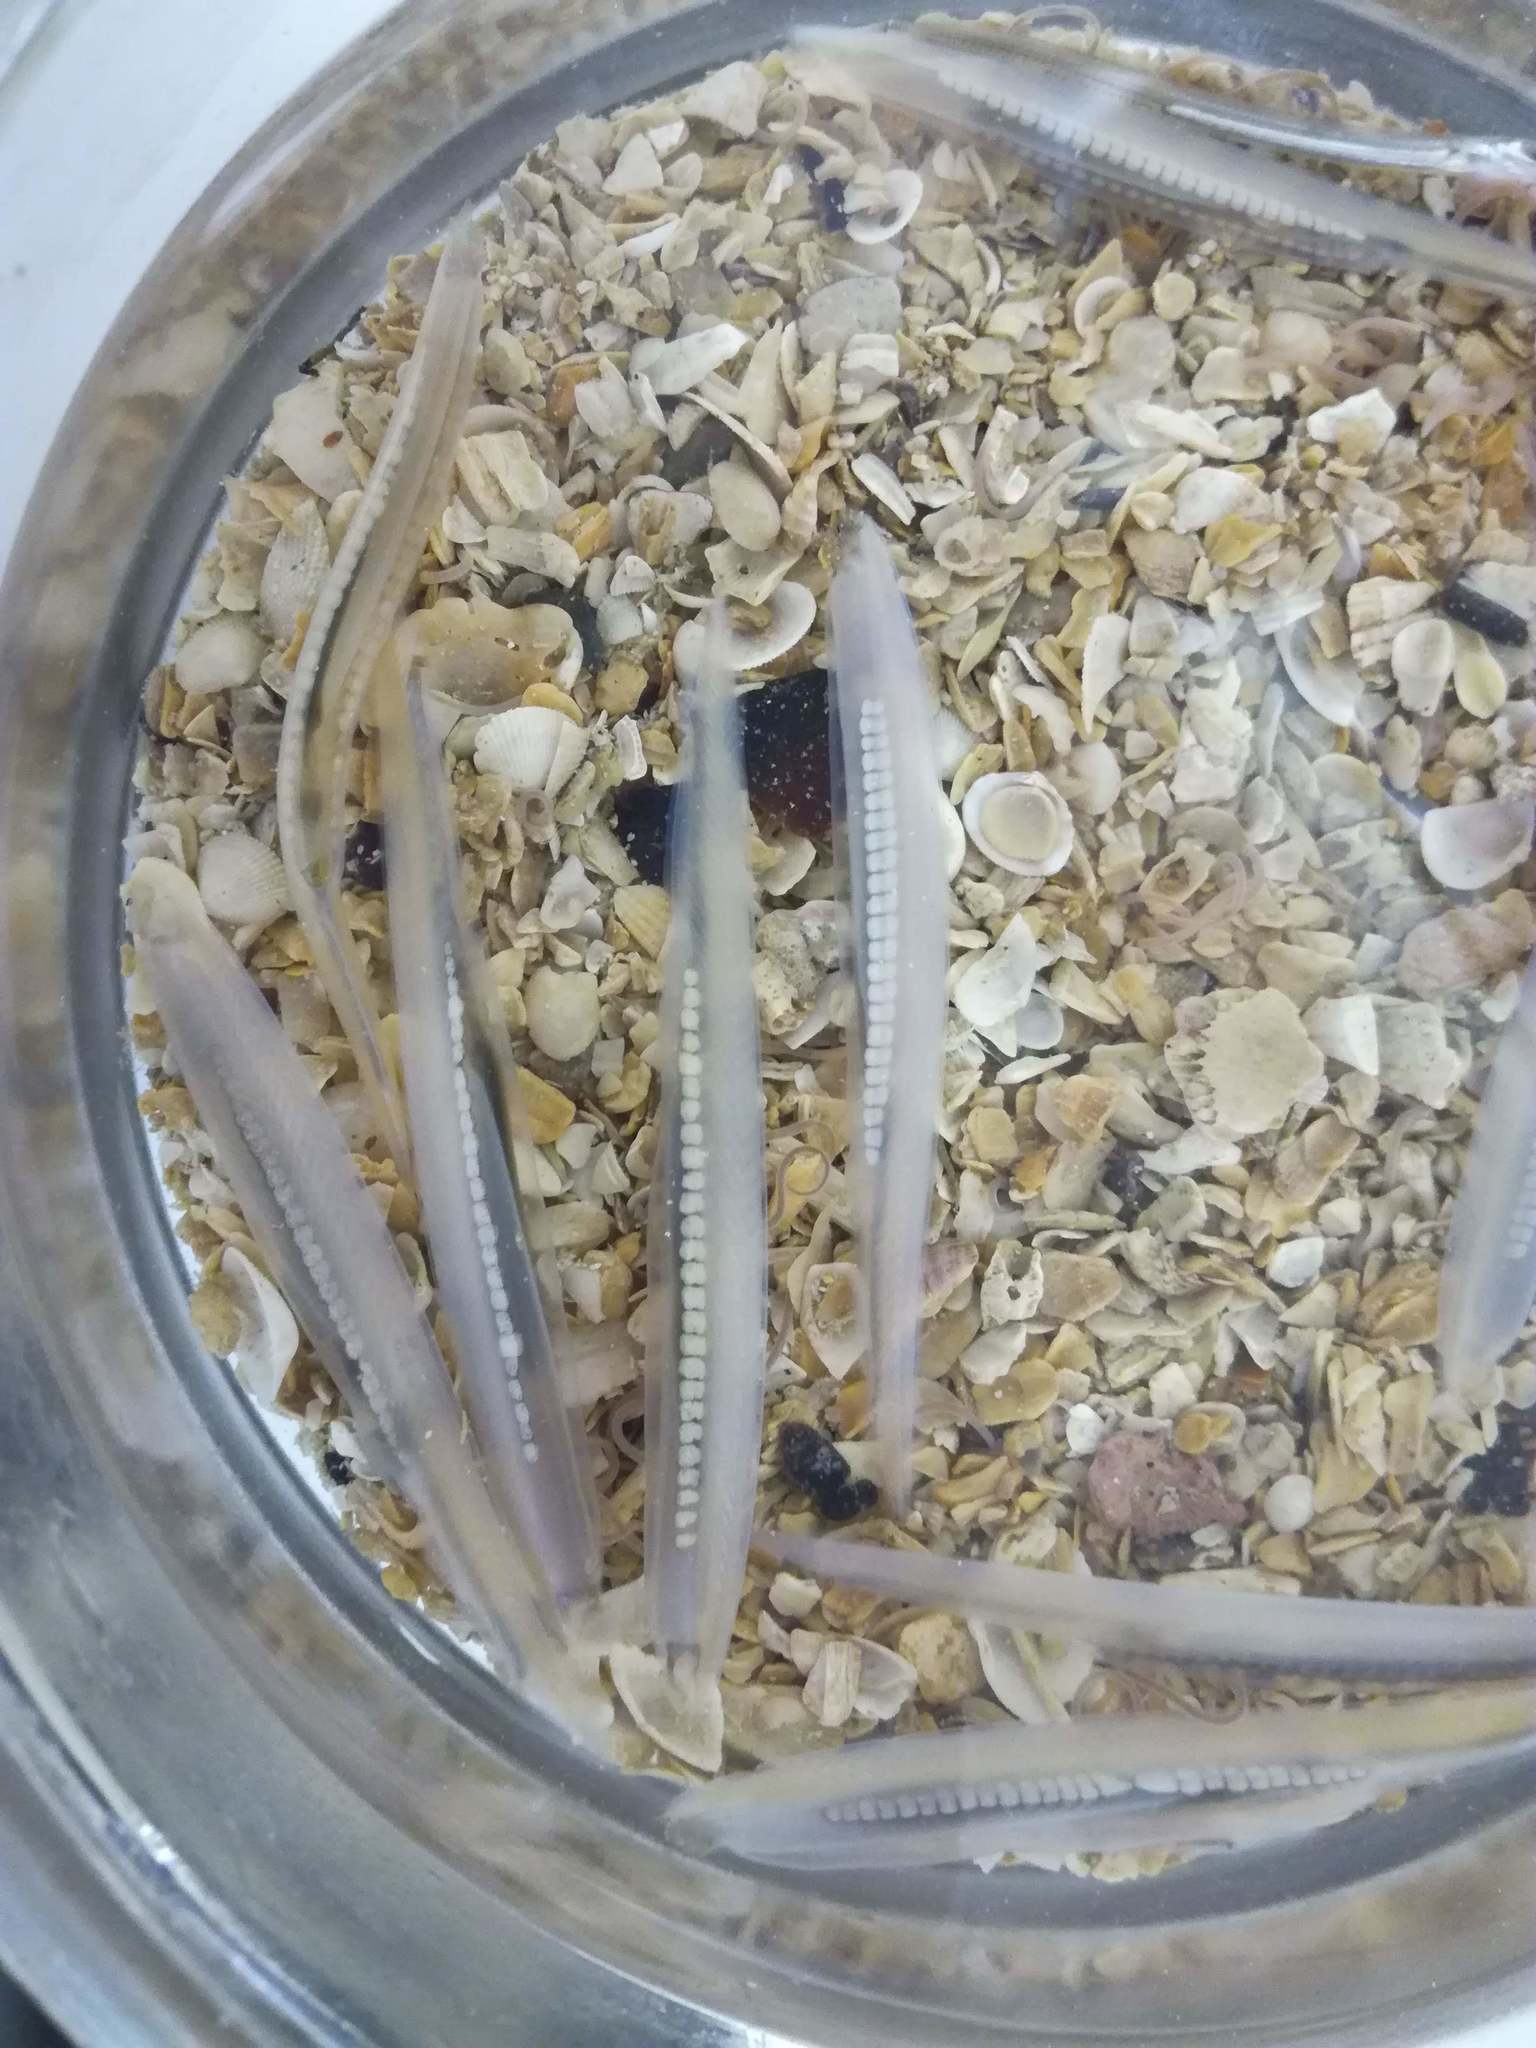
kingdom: Animalia
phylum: Chordata
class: Leptocardii
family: Branchiostomatidae
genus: Branchiostoma
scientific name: Branchiostoma lanceolatum
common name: Lancelet
